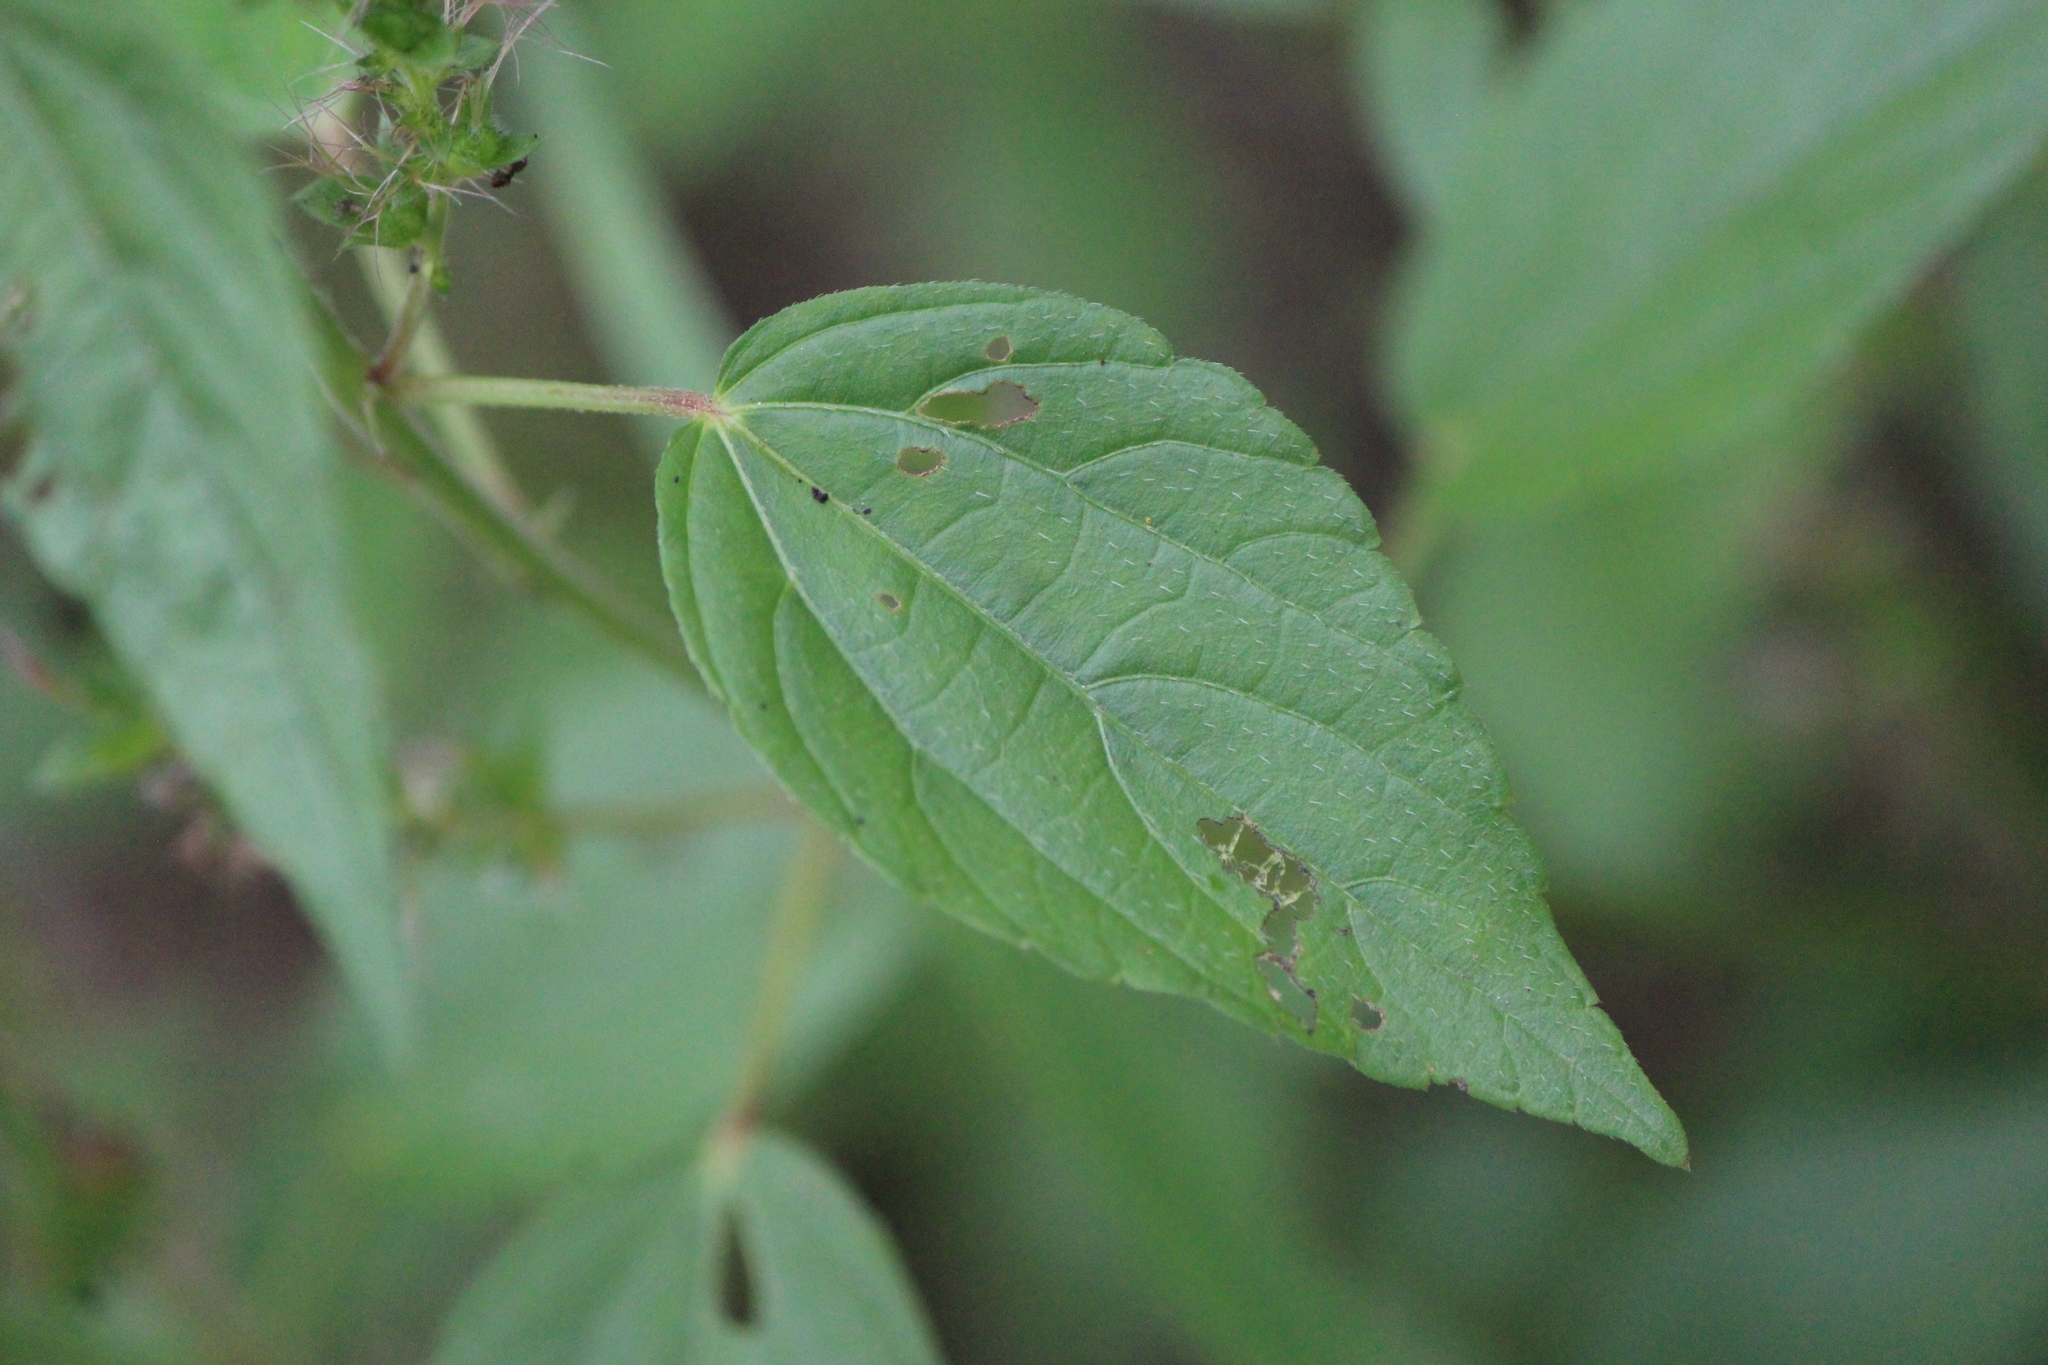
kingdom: Plantae
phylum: Tracheophyta
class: Magnoliopsida
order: Malpighiales
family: Euphorbiaceae
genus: Acalypha
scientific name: Acalypha phleoides
